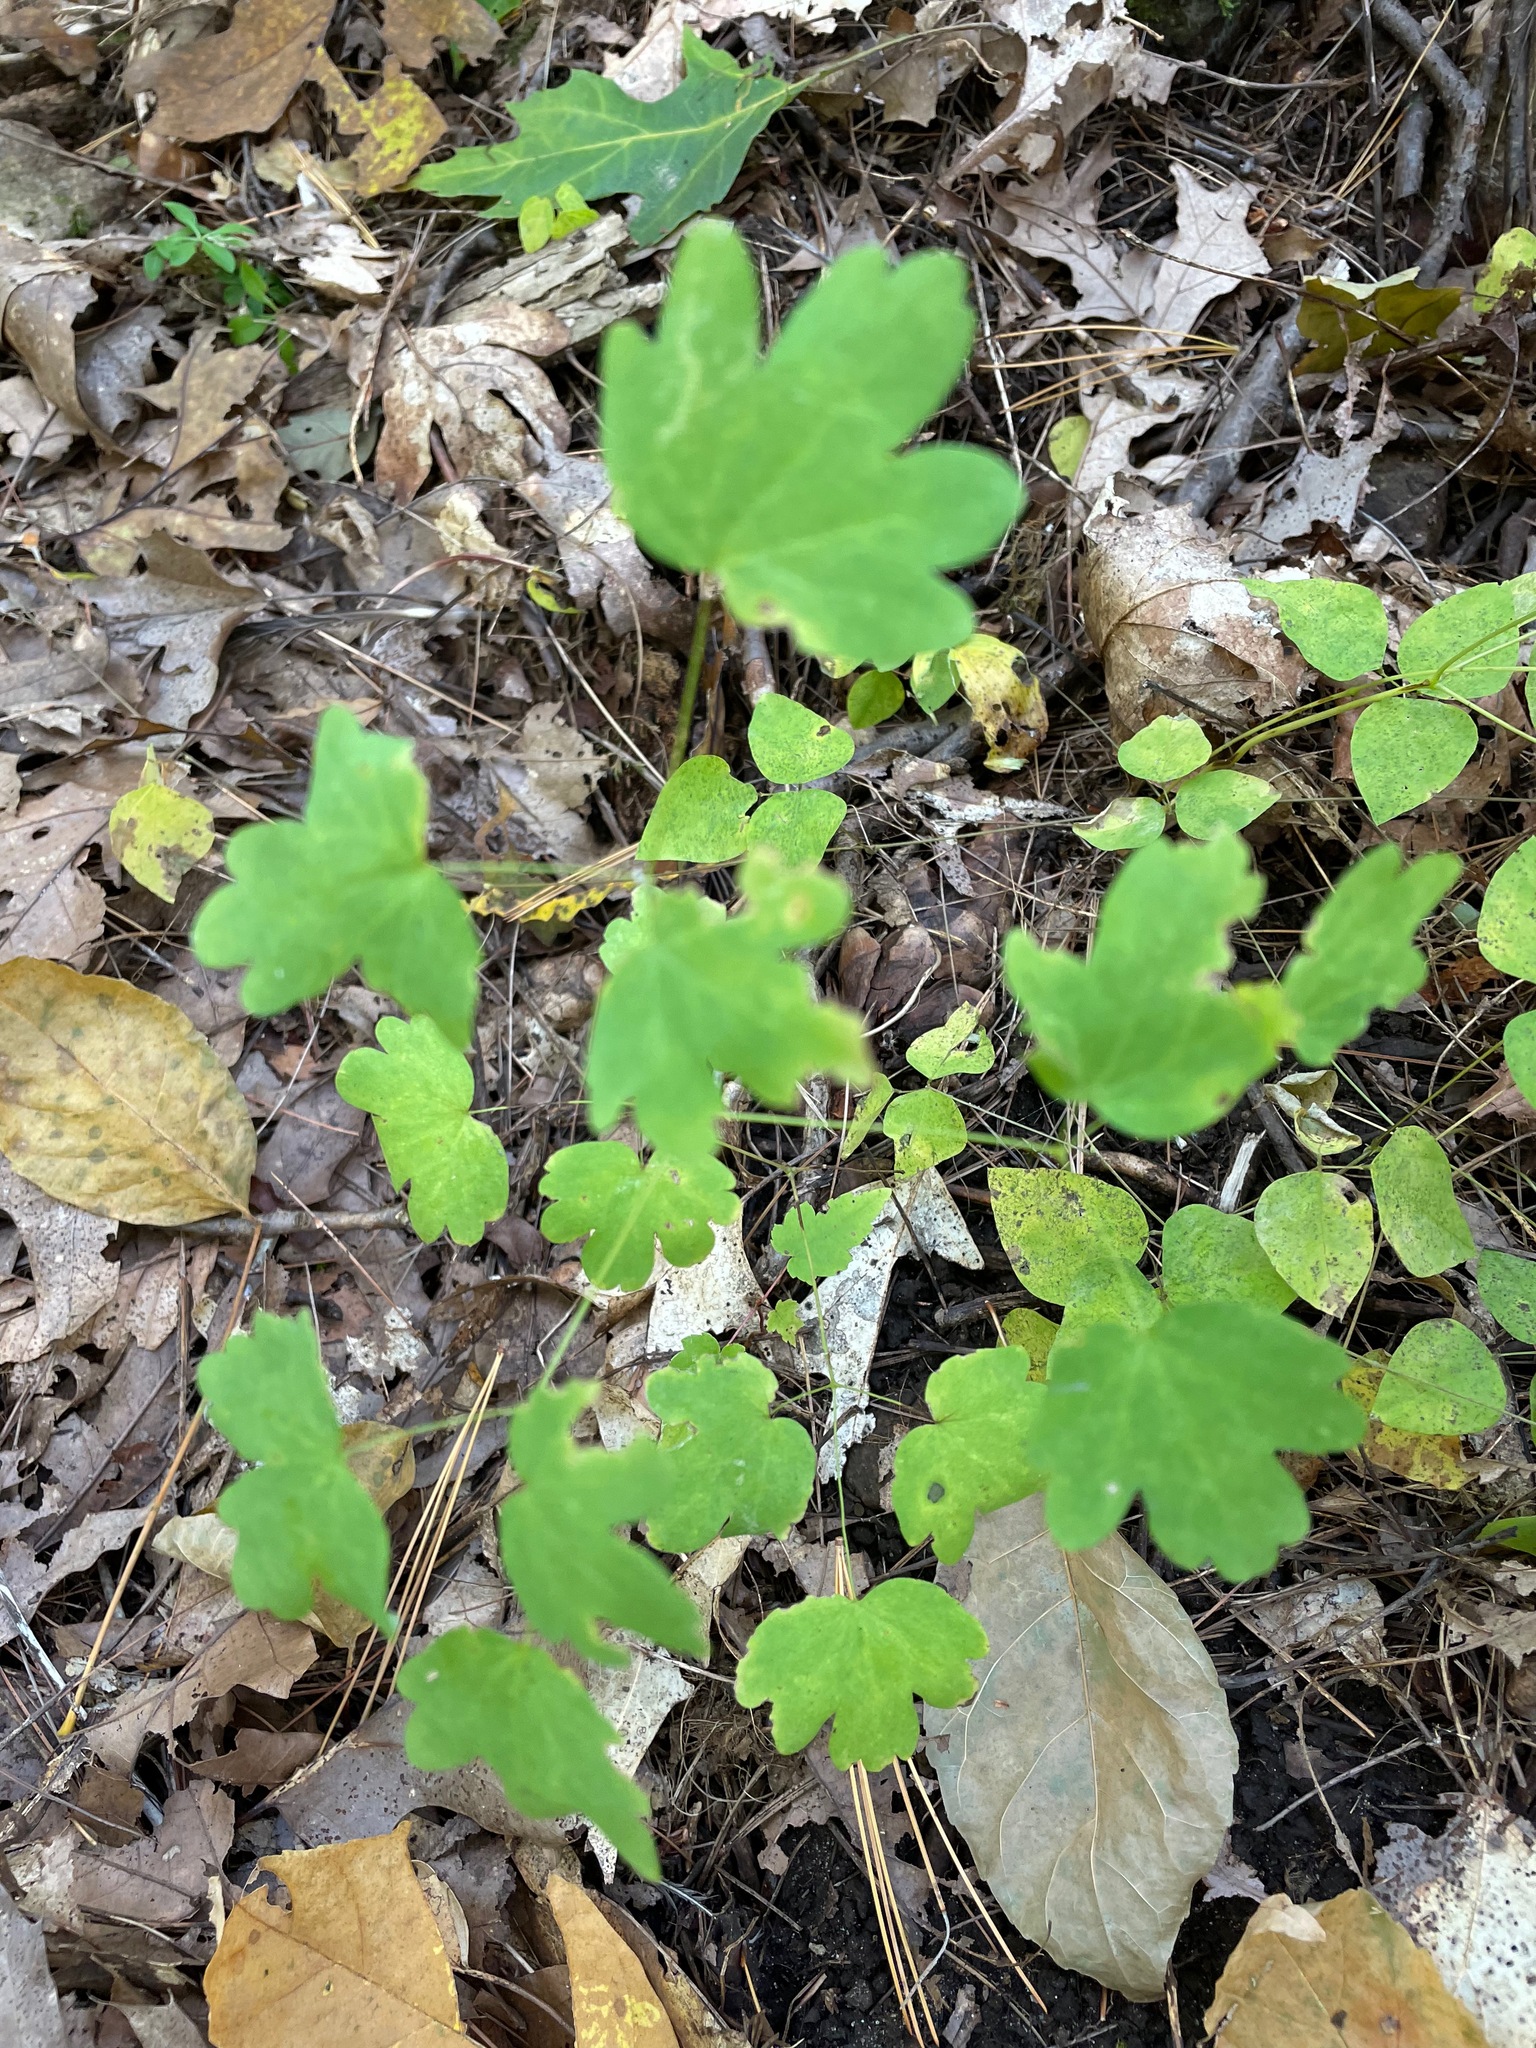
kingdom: Plantae
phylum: Tracheophyta
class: Magnoliopsida
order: Ranunculales
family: Ranunculaceae
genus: Thalictrum
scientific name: Thalictrum dioicum
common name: Early meadow-rue
